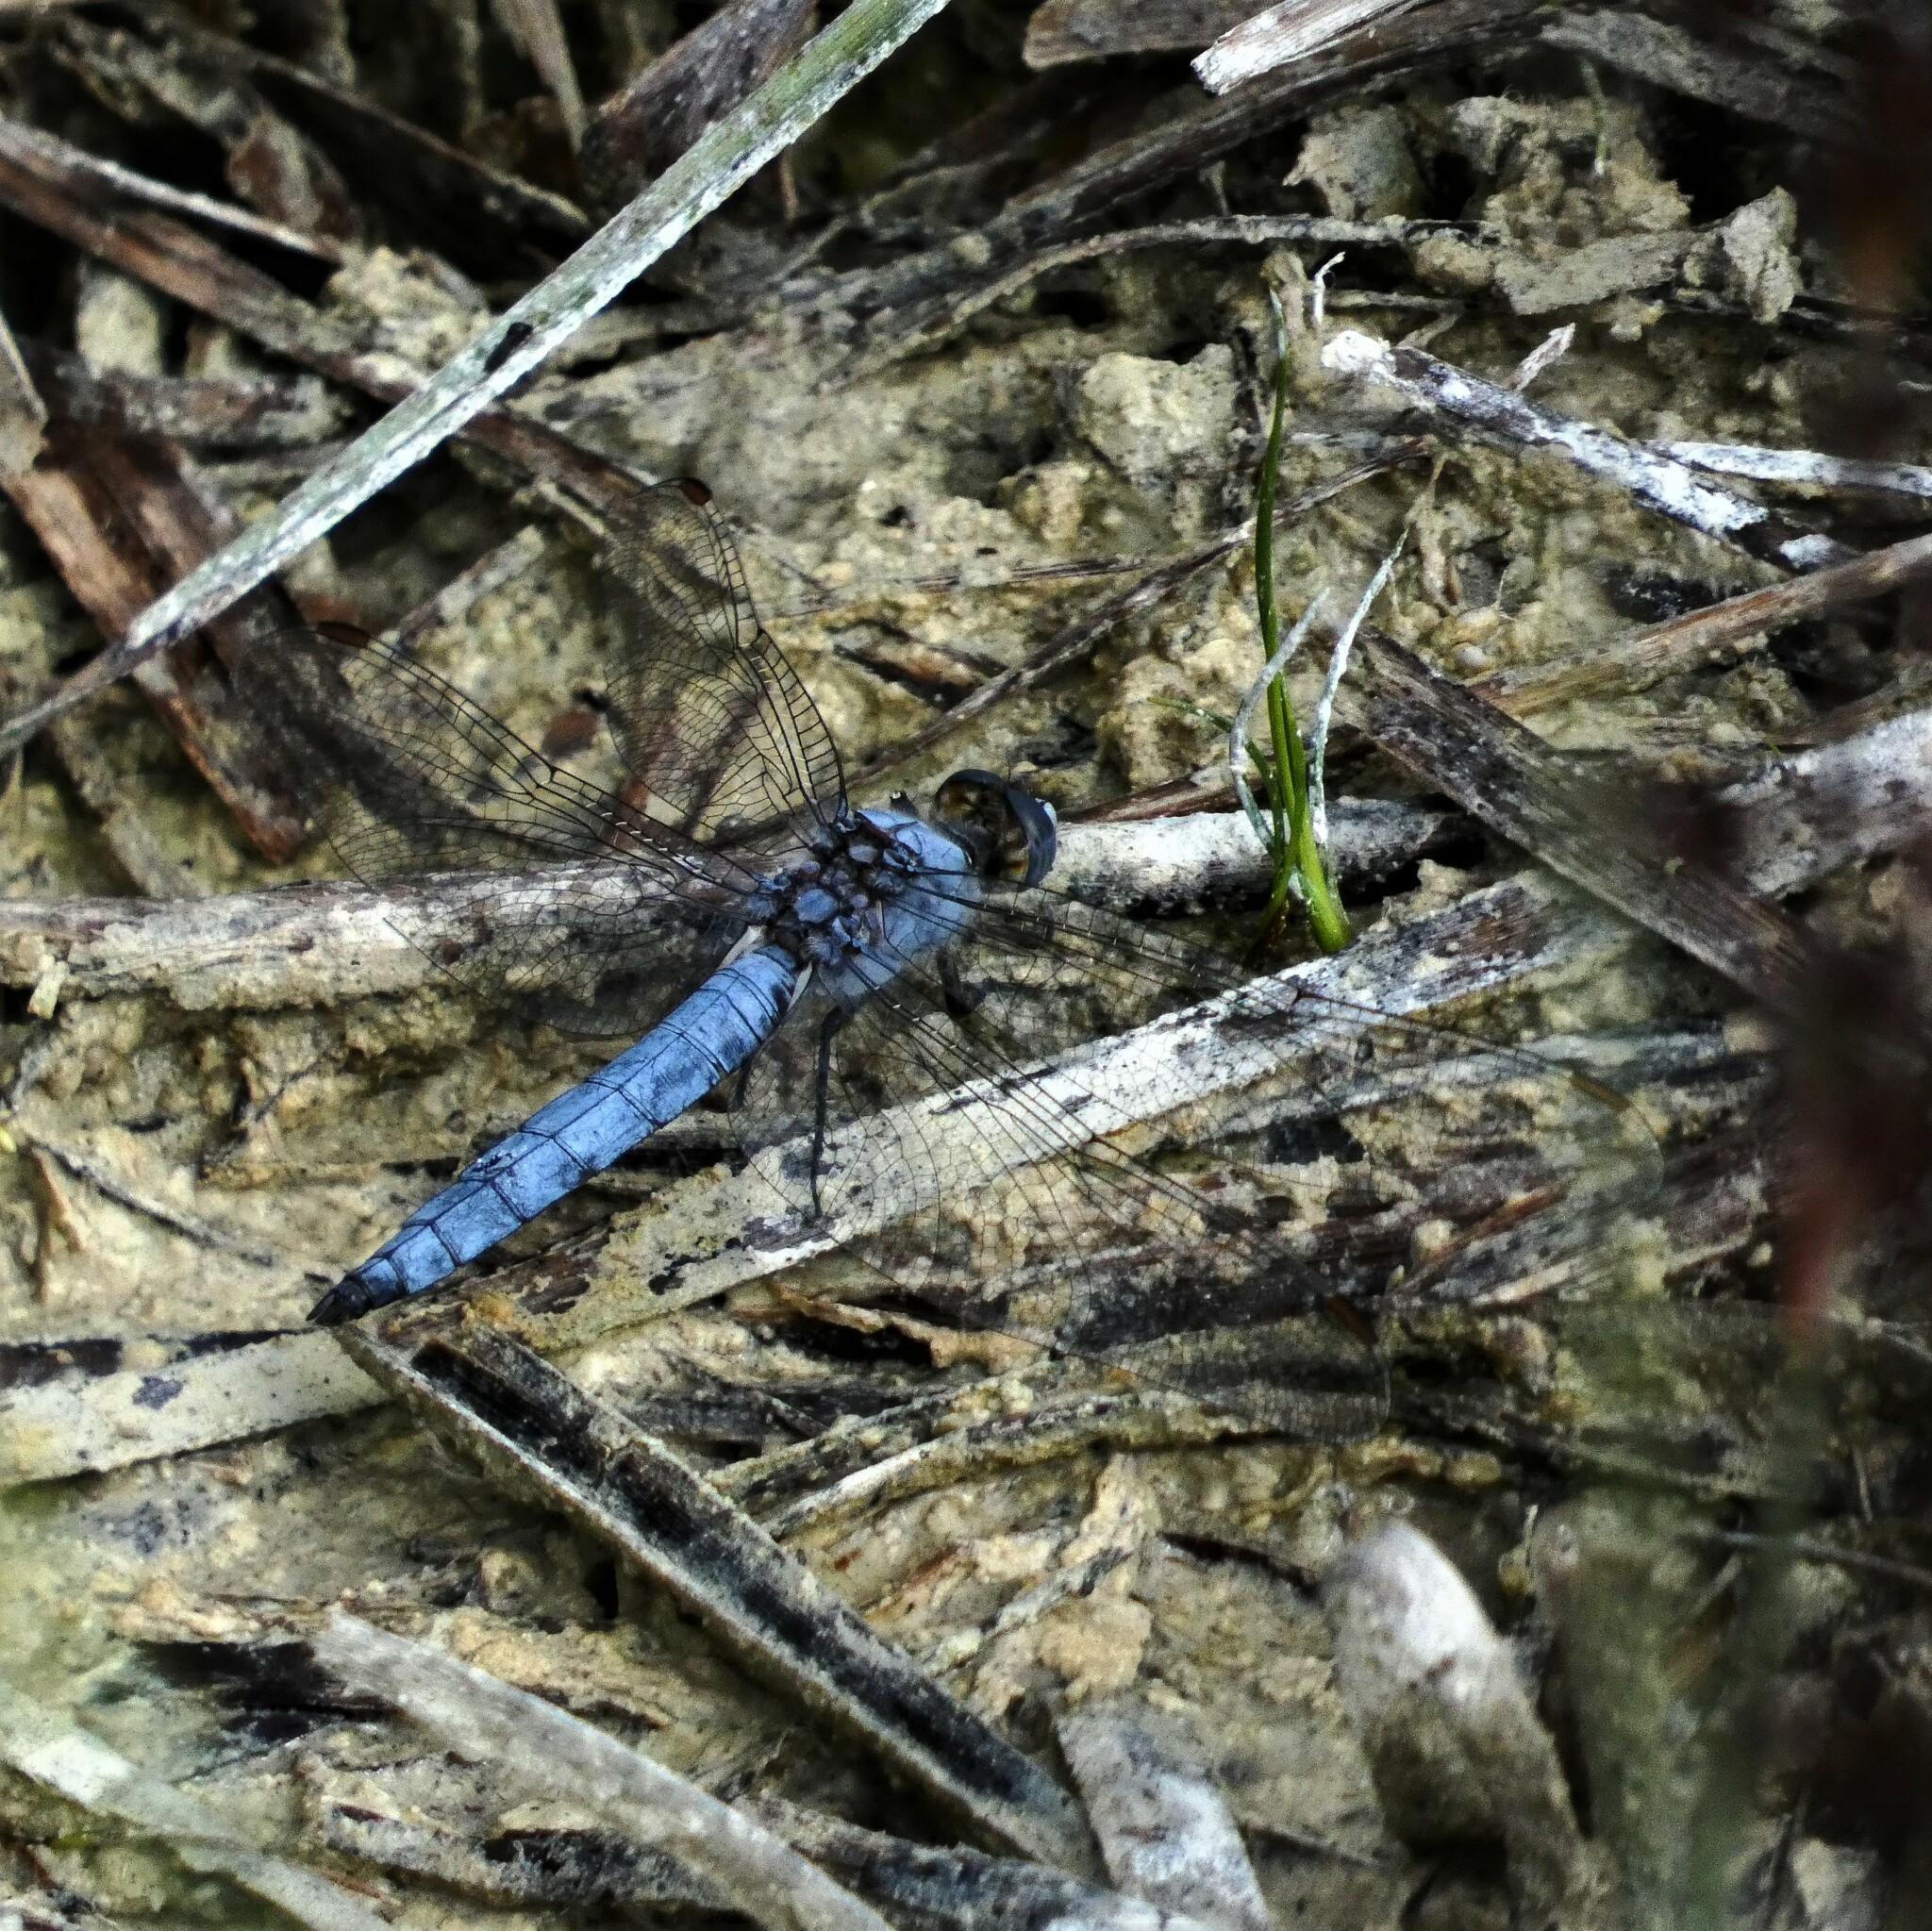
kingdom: Animalia
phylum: Arthropoda
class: Insecta
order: Odonata
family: Libellulidae
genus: Orthetrum
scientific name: Orthetrum brunneum
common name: Southern skimmer
